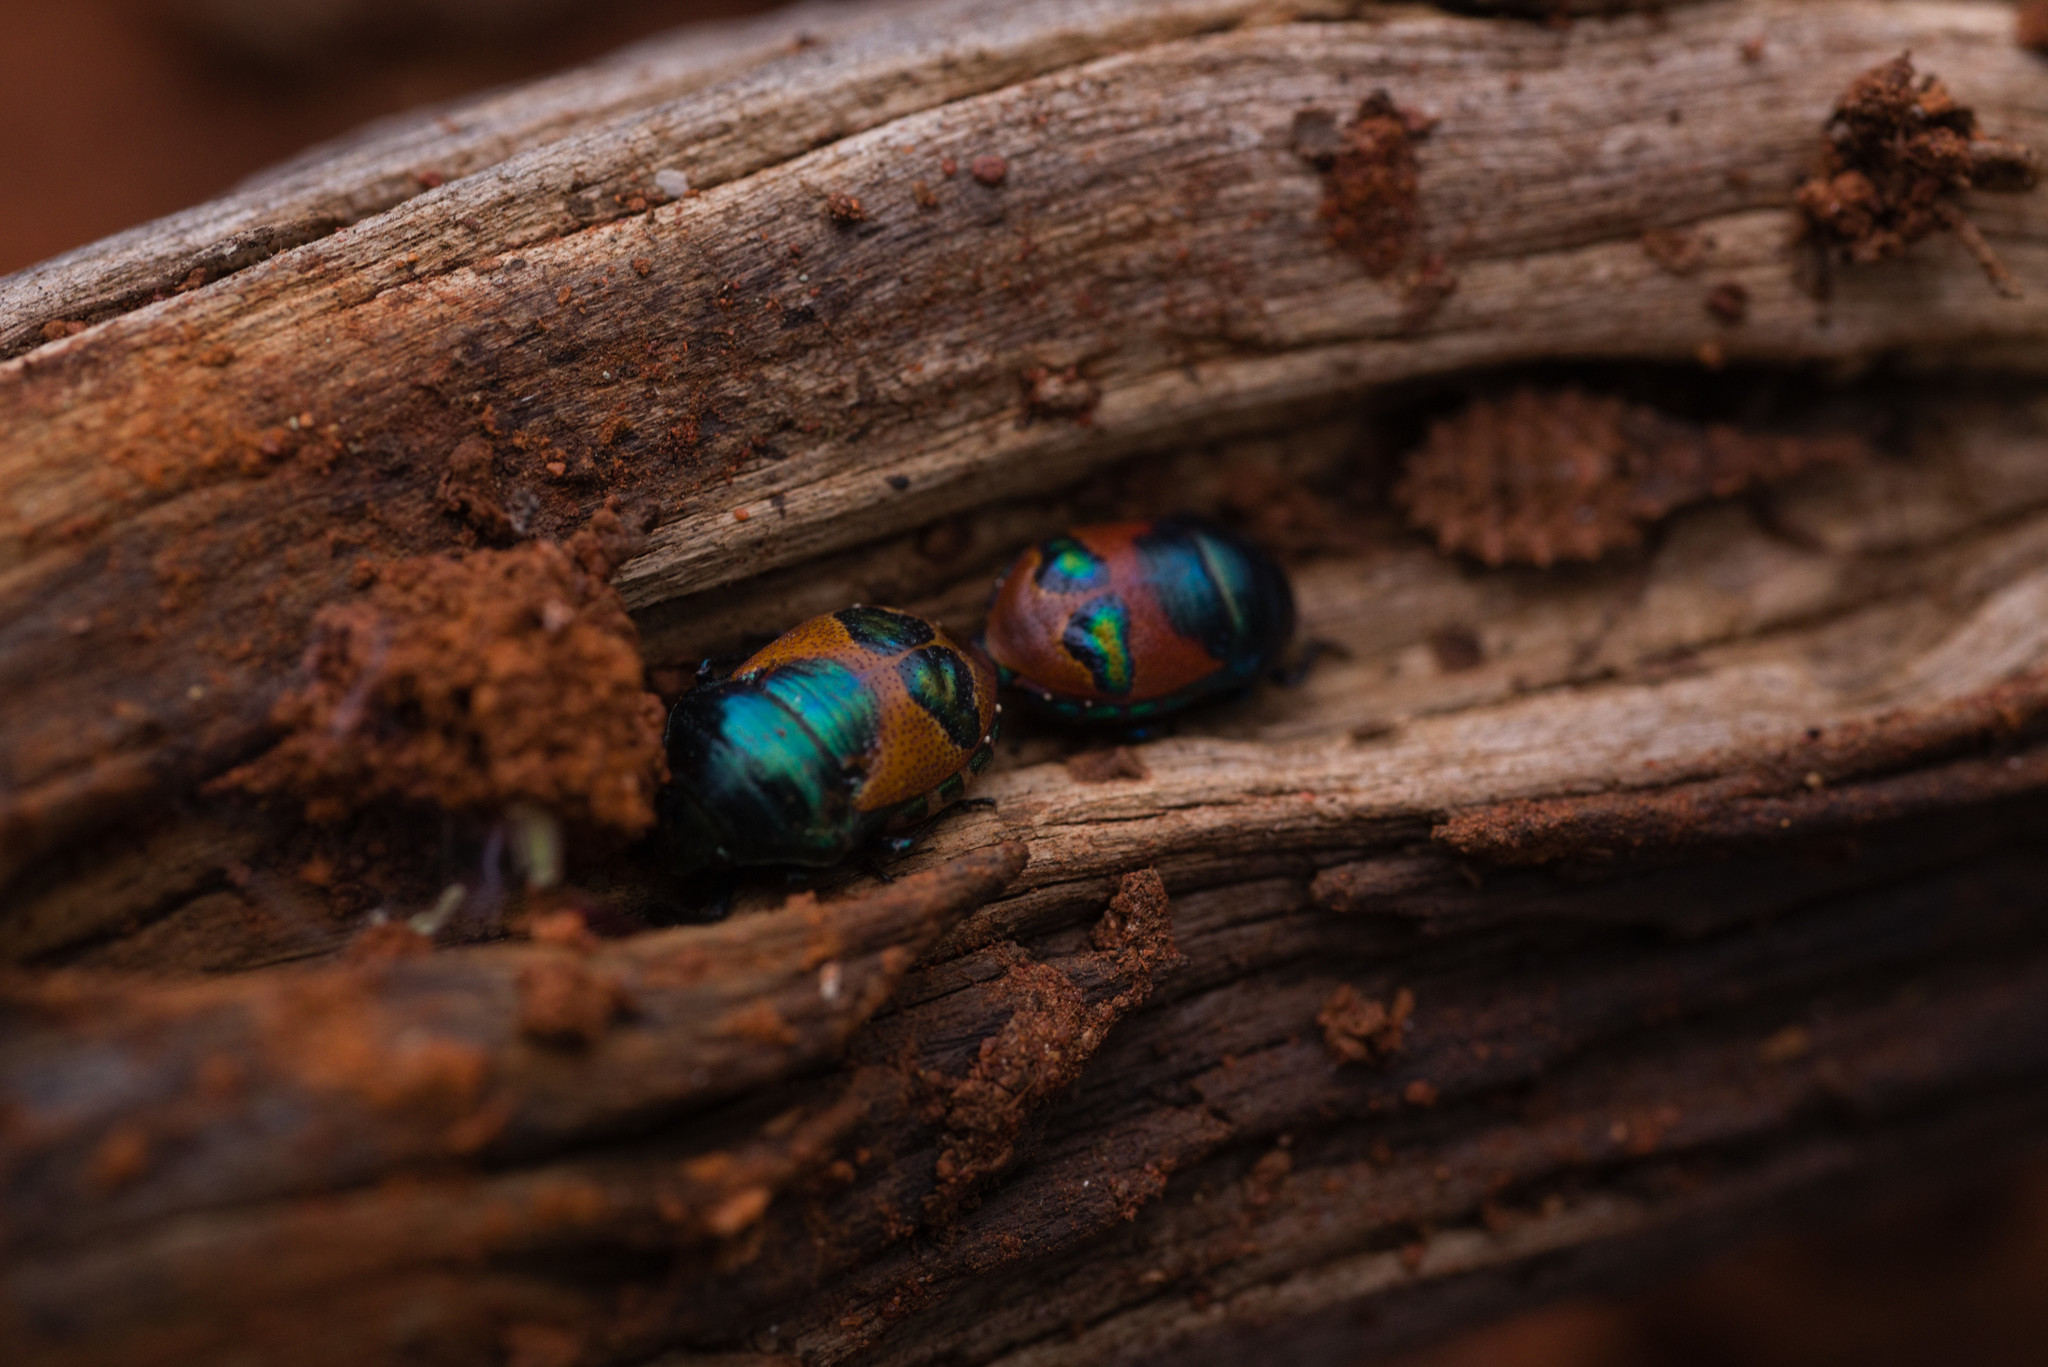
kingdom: Animalia
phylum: Arthropoda
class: Insecta
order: Hemiptera
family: Scutelleridae
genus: Choerocoris
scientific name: Choerocoris paganus
